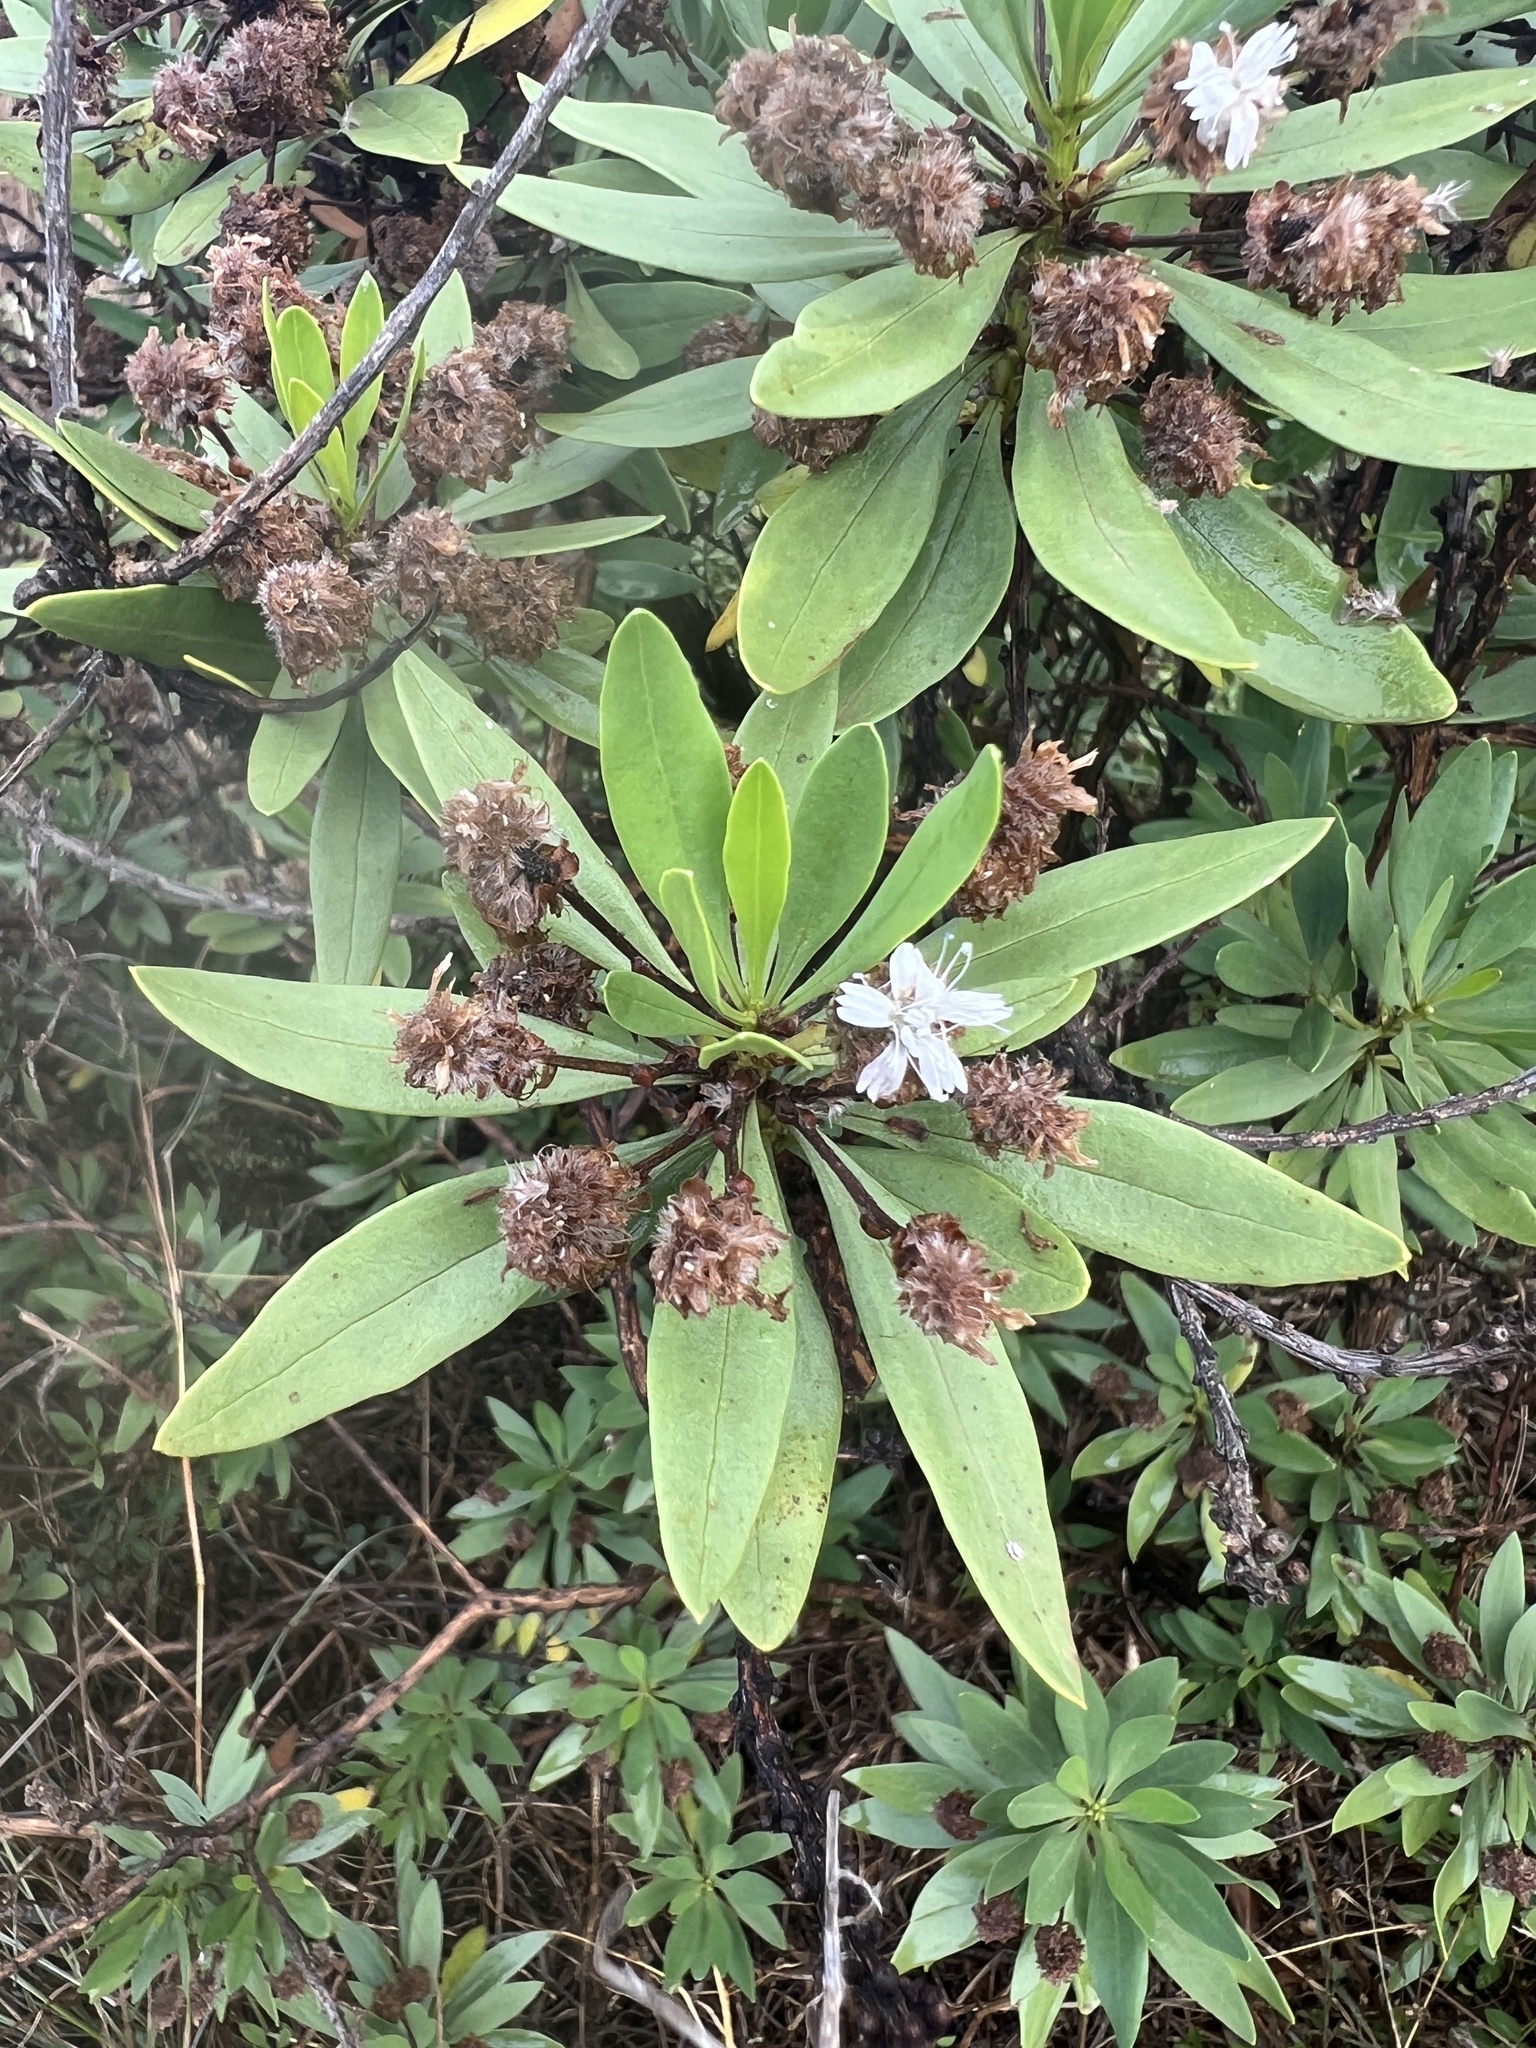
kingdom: Plantae
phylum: Tracheophyta
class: Magnoliopsida
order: Lamiales
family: Plantaginaceae
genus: Globularia
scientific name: Globularia salicina
